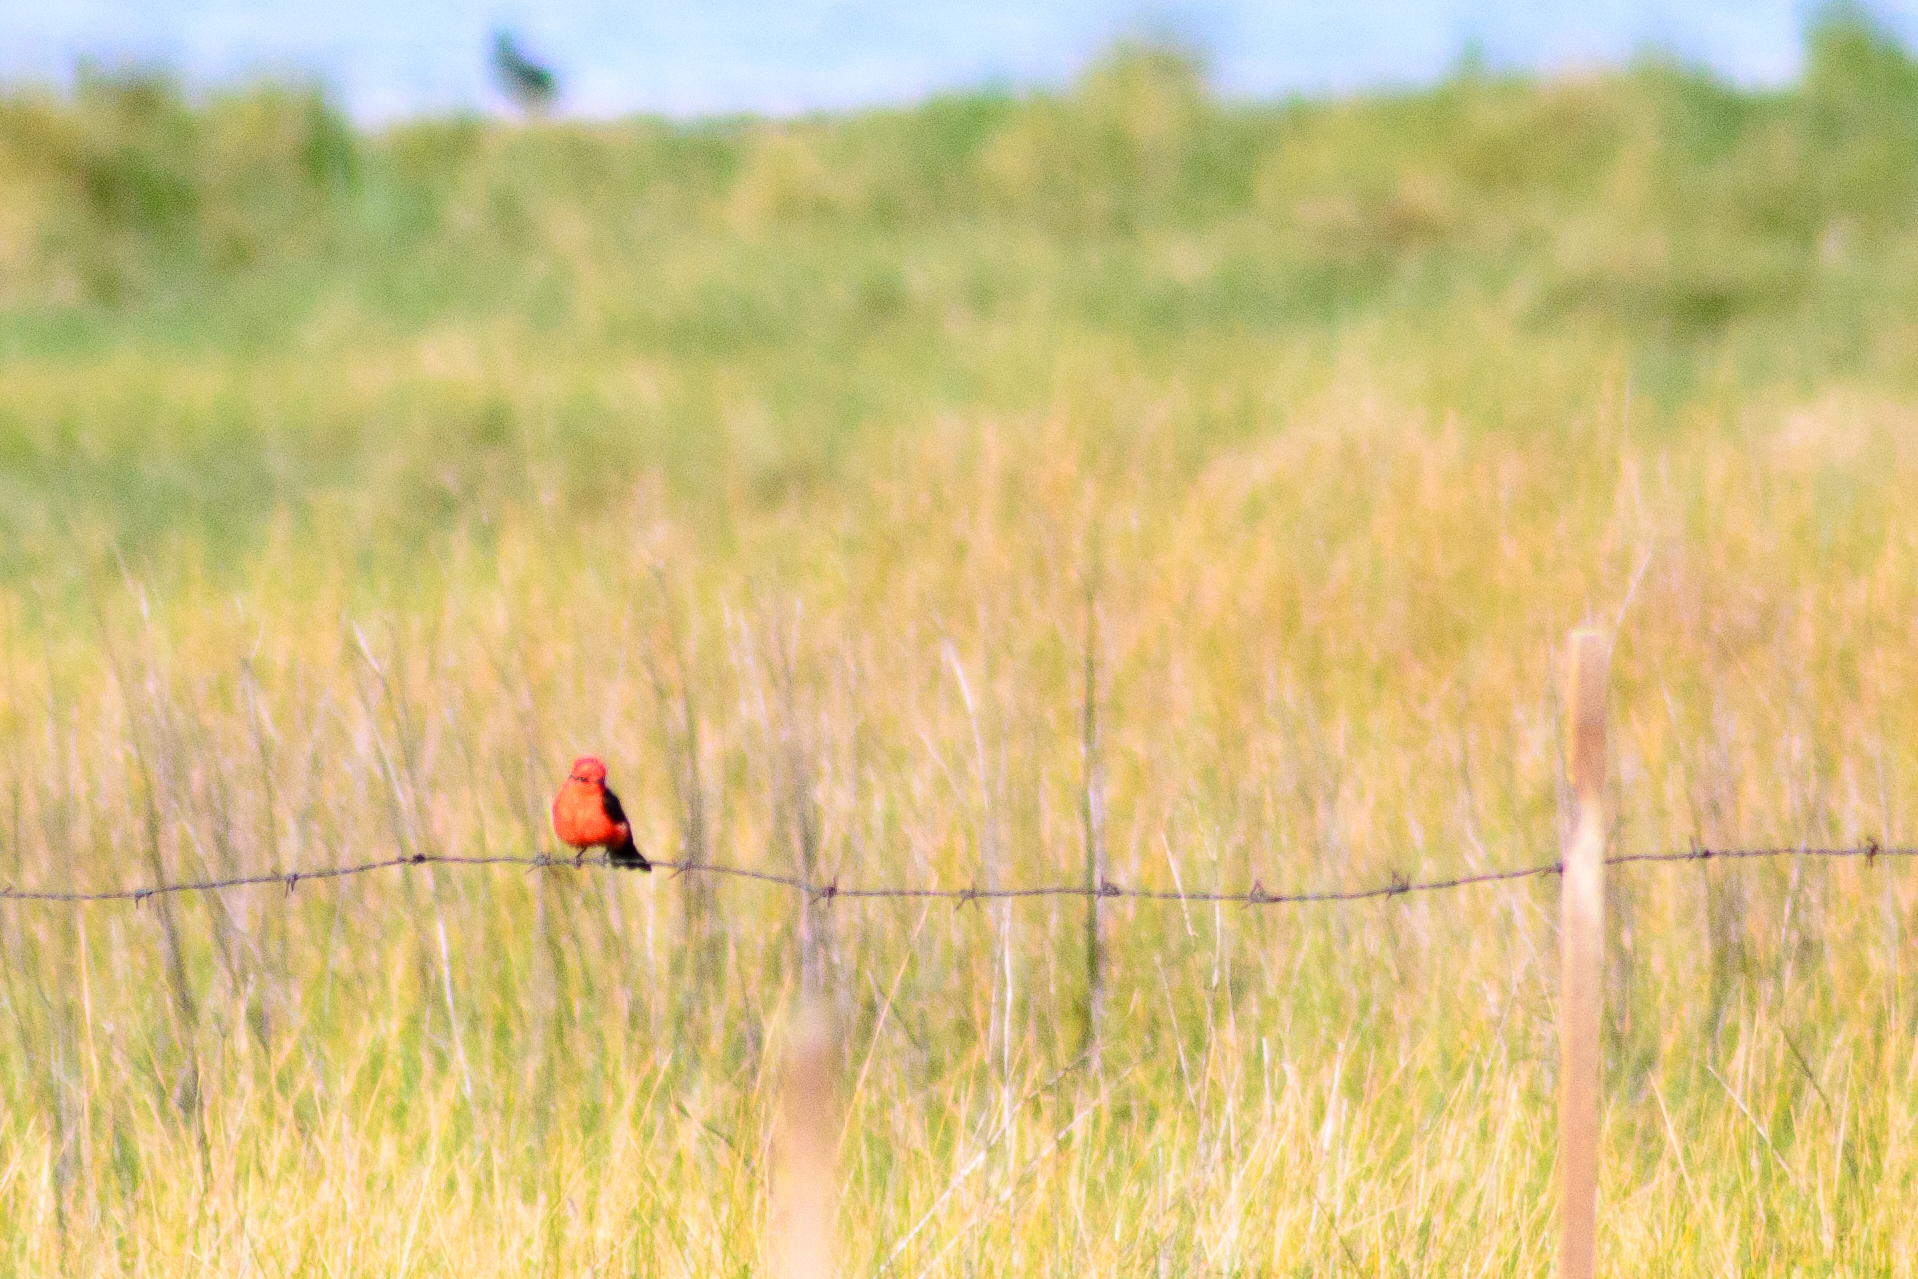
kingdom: Animalia
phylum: Chordata
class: Aves
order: Passeriformes
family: Tyrannidae
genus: Pyrocephalus
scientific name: Pyrocephalus rubinus
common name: Vermilion flycatcher
